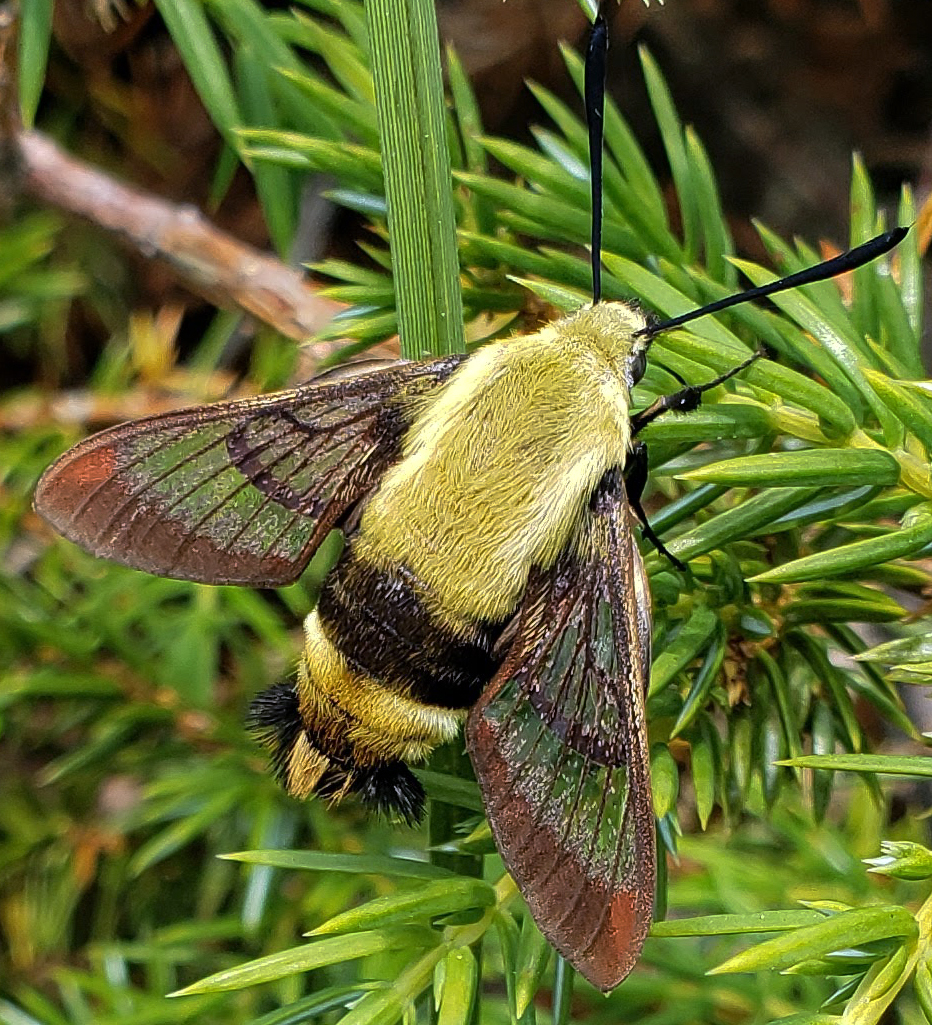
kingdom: Animalia
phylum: Arthropoda
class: Insecta
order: Lepidoptera
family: Sphingidae
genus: Hemaris
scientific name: Hemaris diffinis
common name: Bumblebee moth
